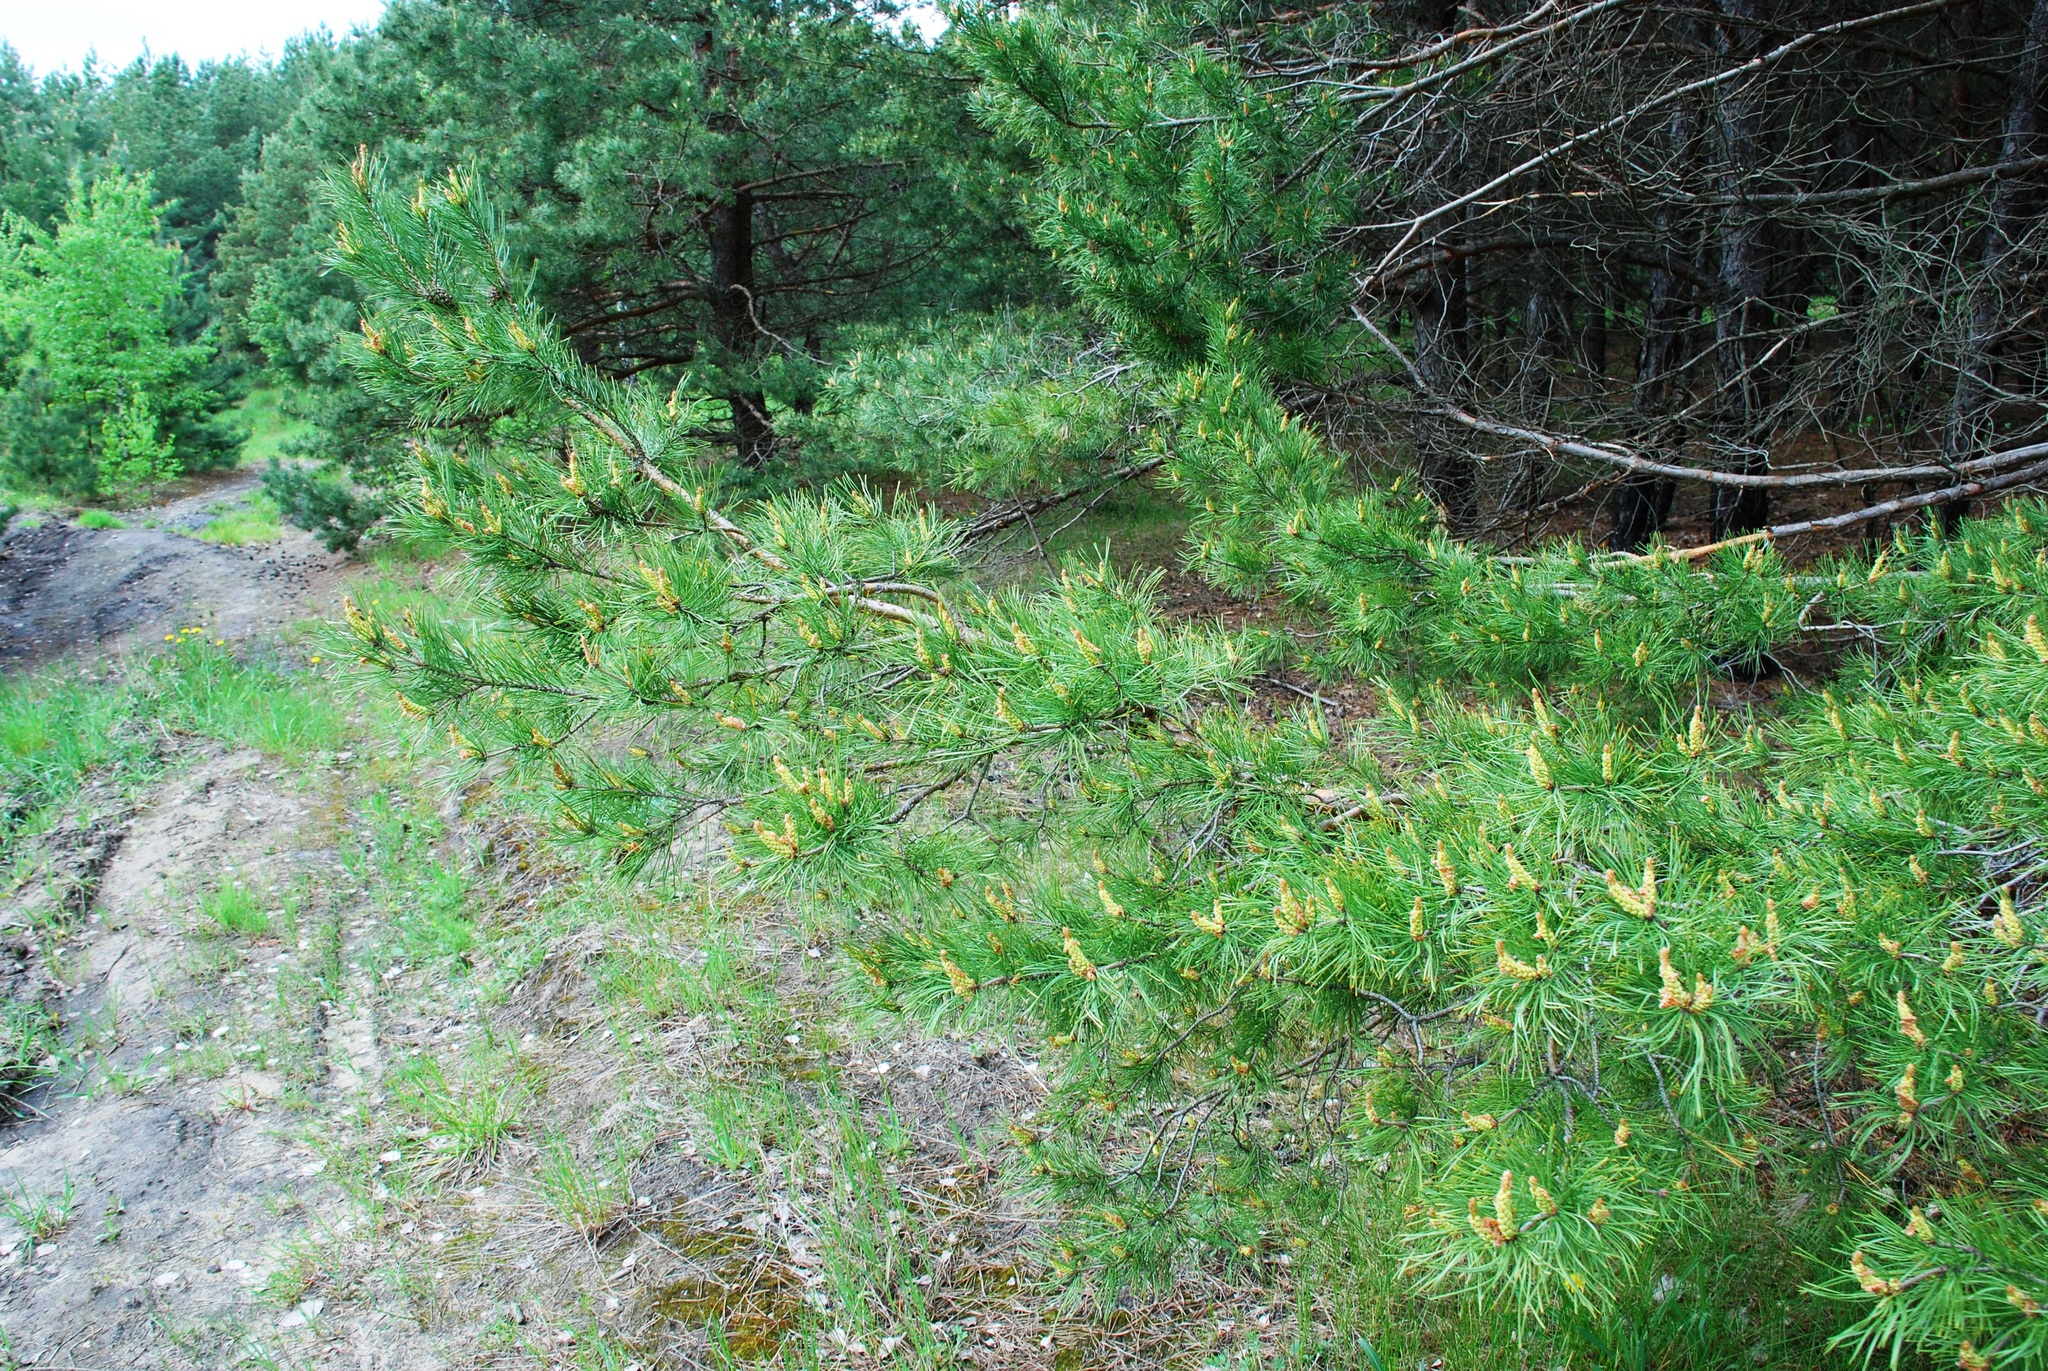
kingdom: Plantae
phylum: Tracheophyta
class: Pinopsida
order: Pinales
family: Pinaceae
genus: Pinus
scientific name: Pinus sylvestris
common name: Scots pine
